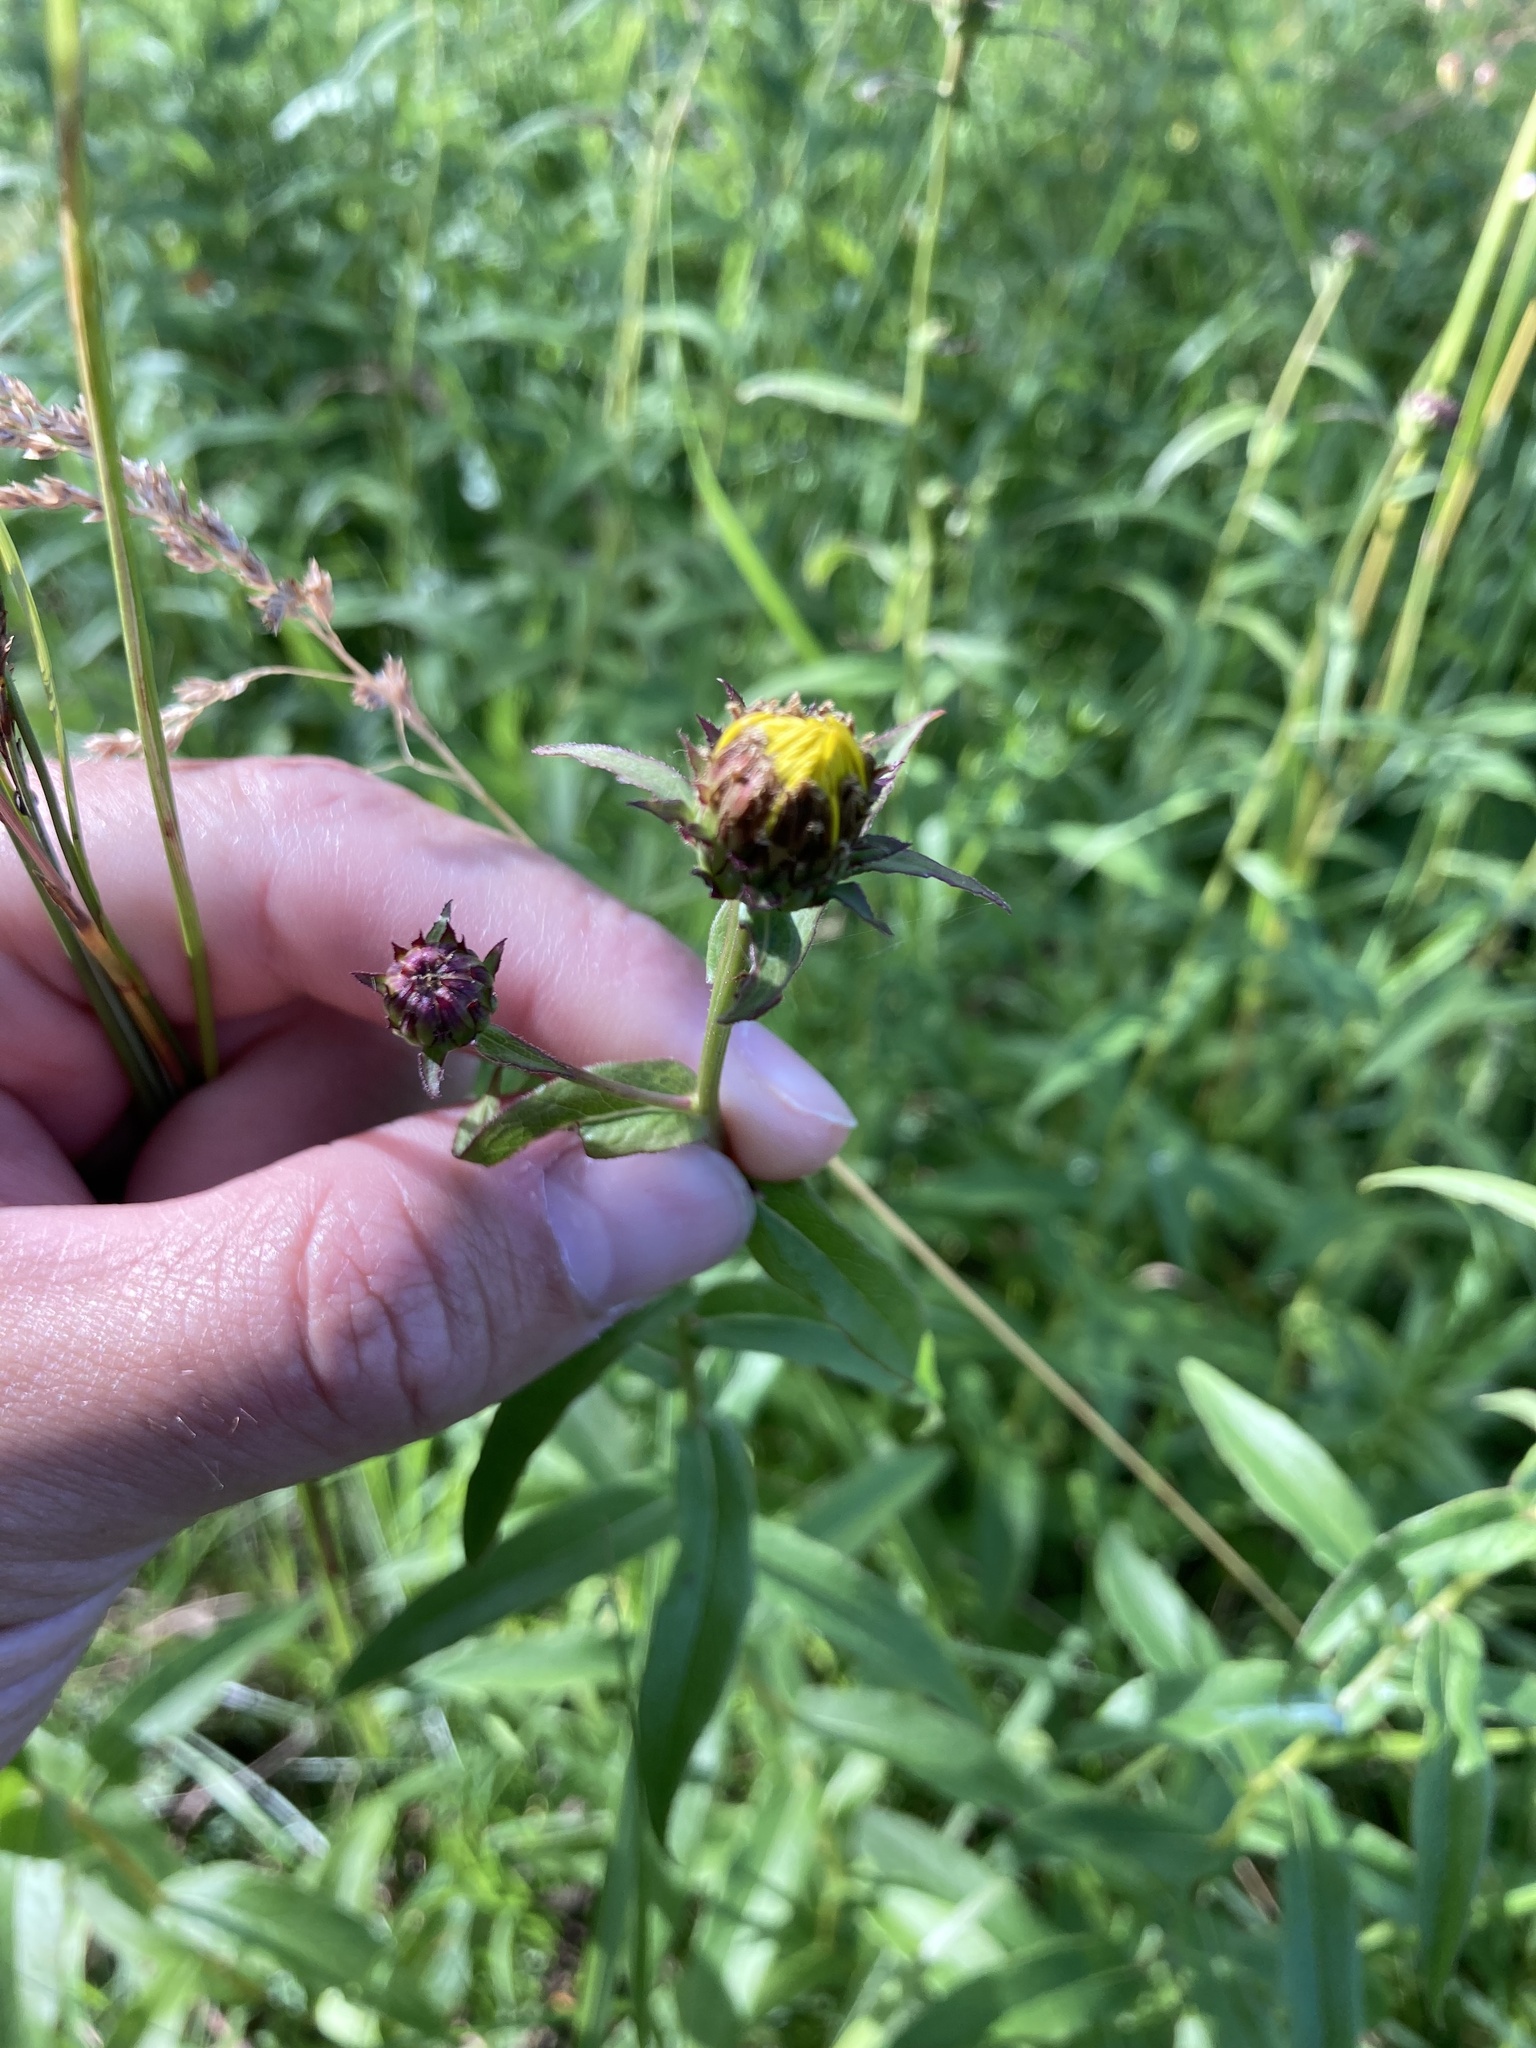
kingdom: Plantae
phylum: Tracheophyta
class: Magnoliopsida
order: Asterales
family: Asteraceae
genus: Pentanema
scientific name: Pentanema salicinum
